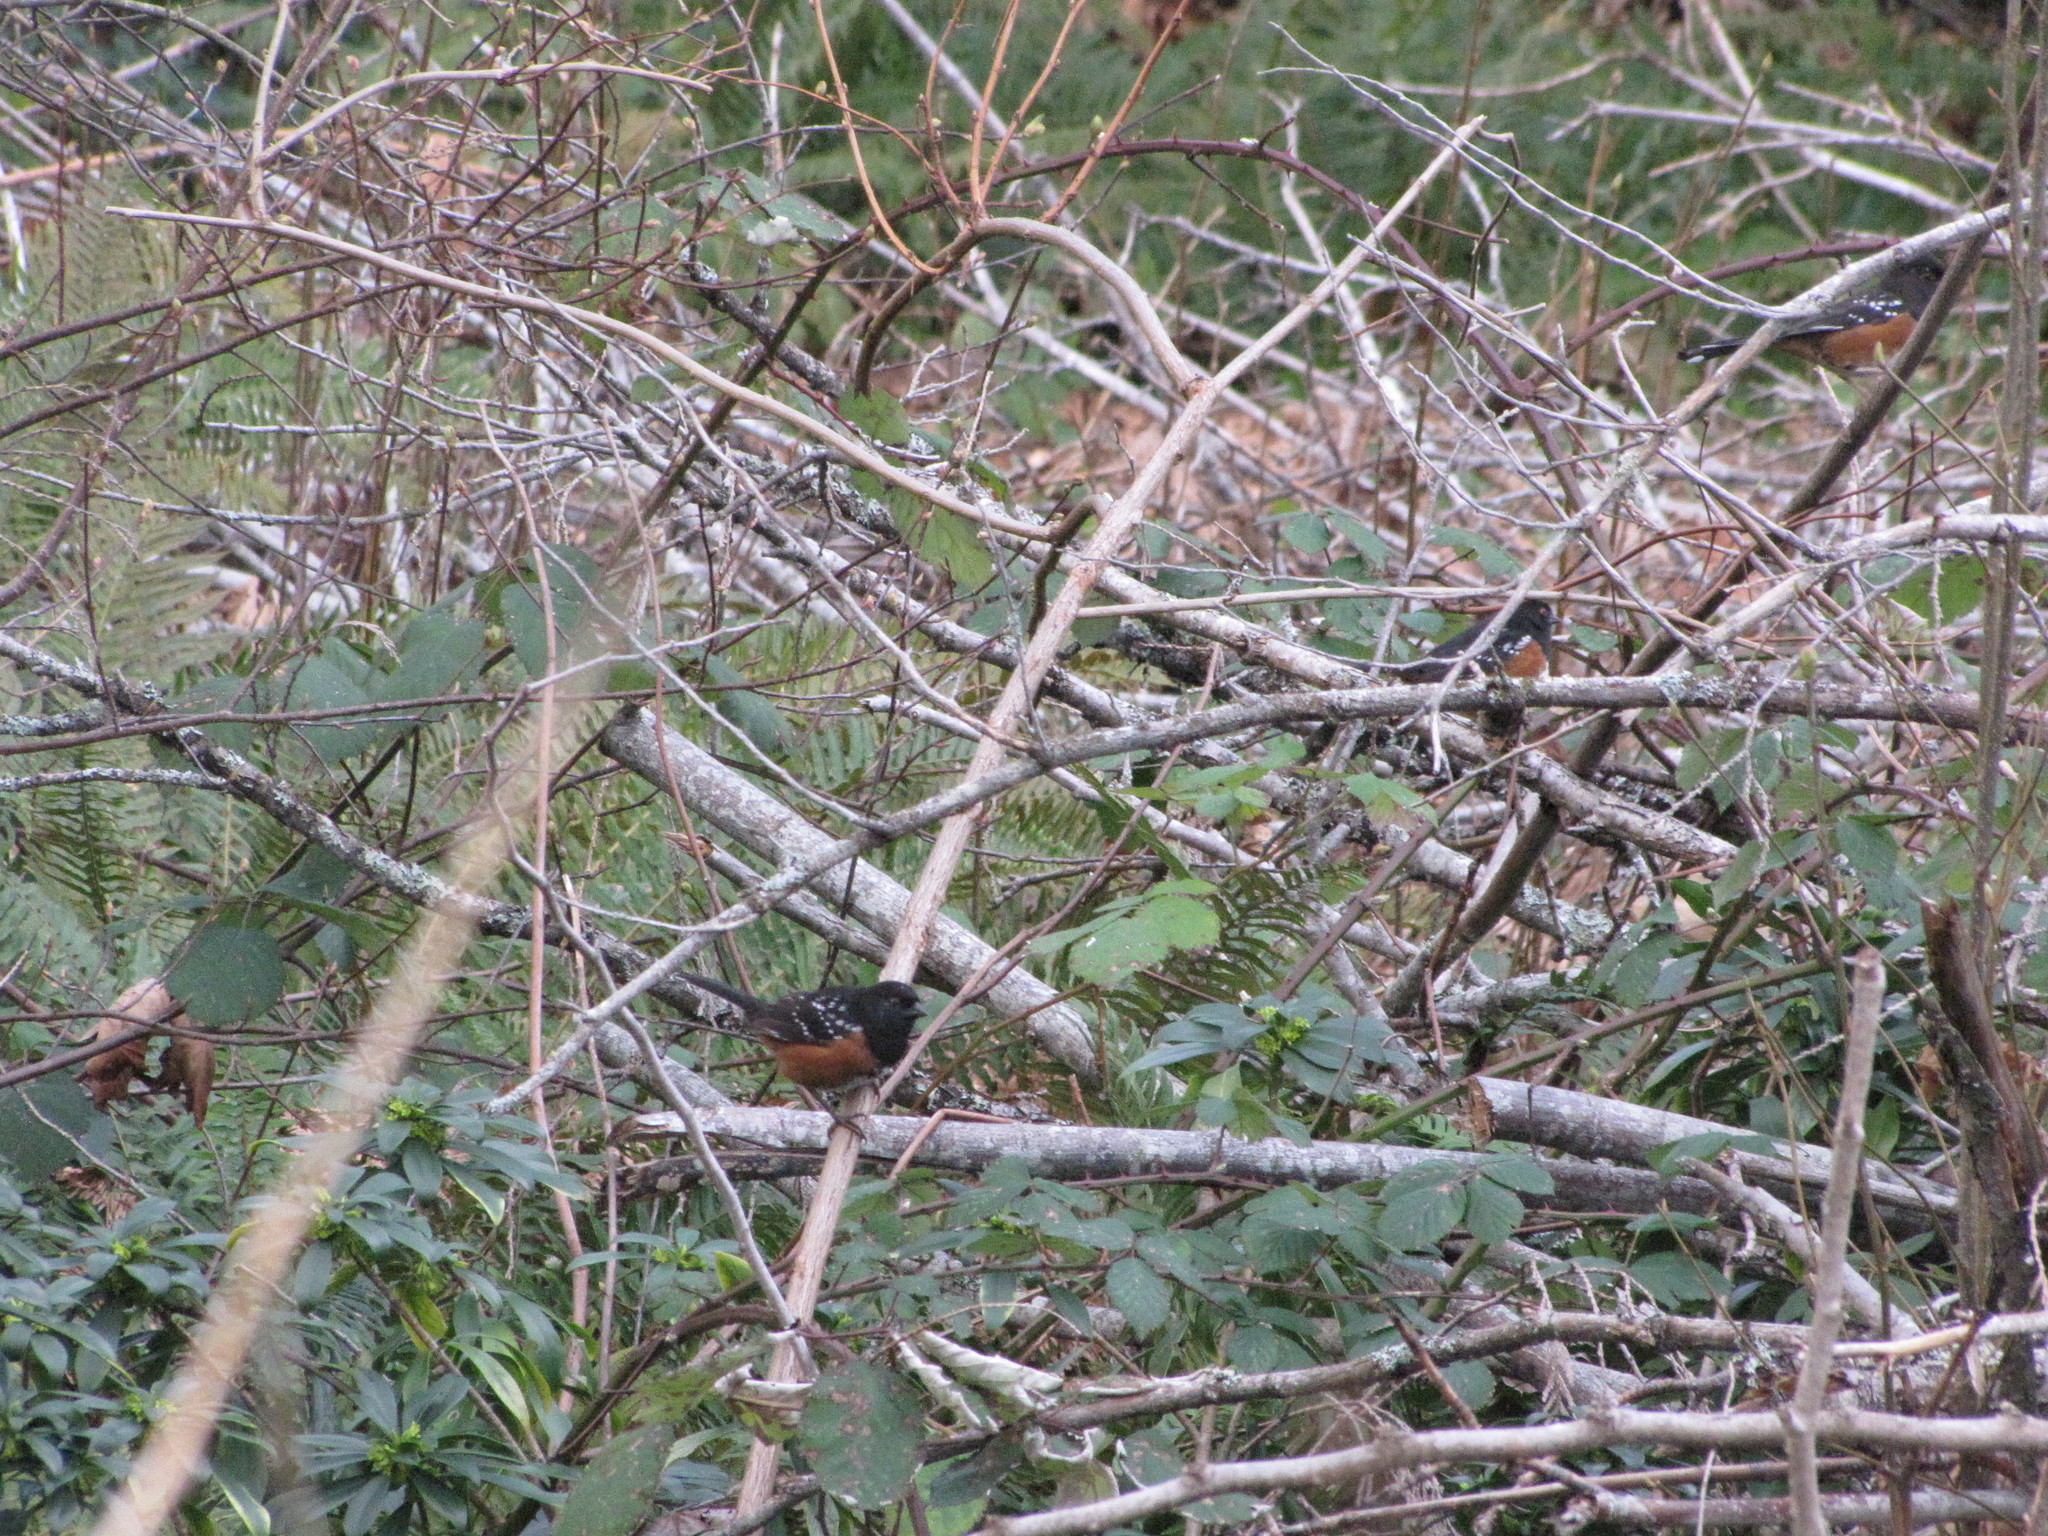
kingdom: Animalia
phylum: Chordata
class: Aves
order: Passeriformes
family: Passerellidae
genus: Pipilo
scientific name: Pipilo maculatus
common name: Spotted towhee
